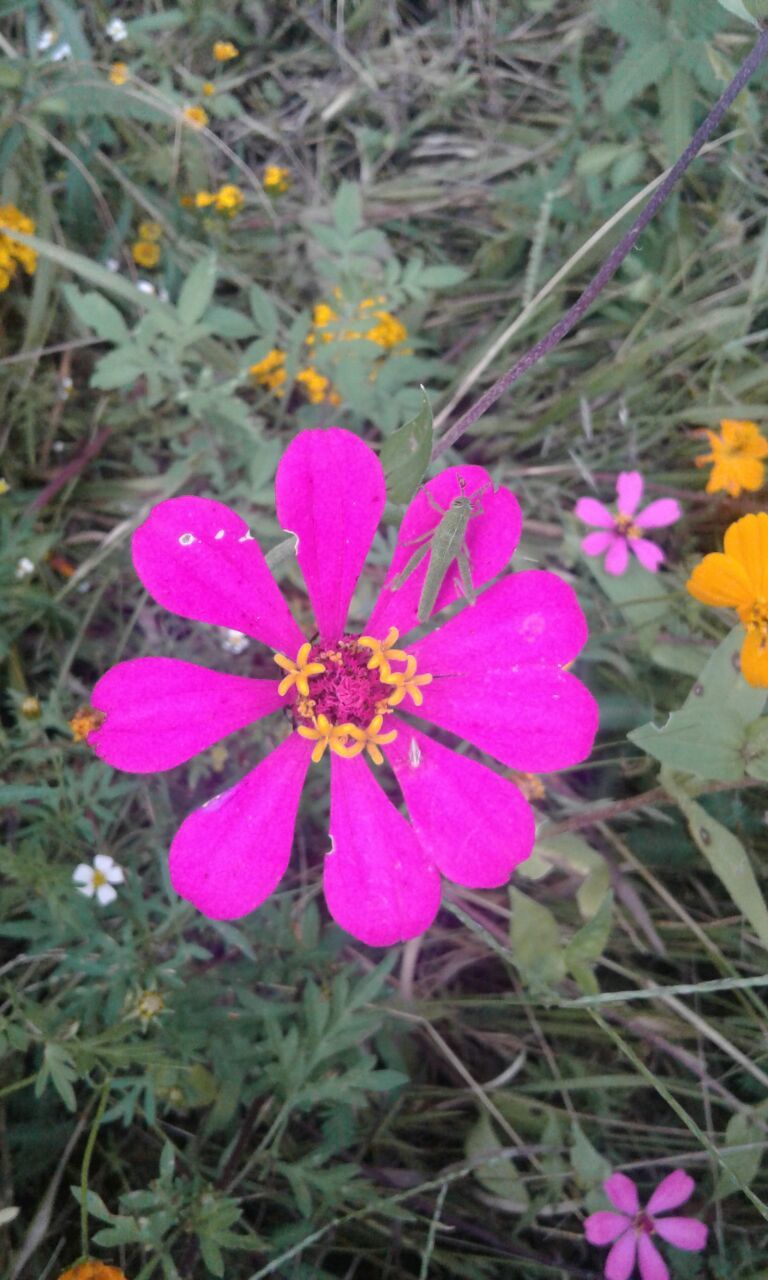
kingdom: Plantae
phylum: Tracheophyta
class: Magnoliopsida
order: Asterales
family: Asteraceae
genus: Zinnia
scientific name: Zinnia elegans
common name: Youth-and-age
